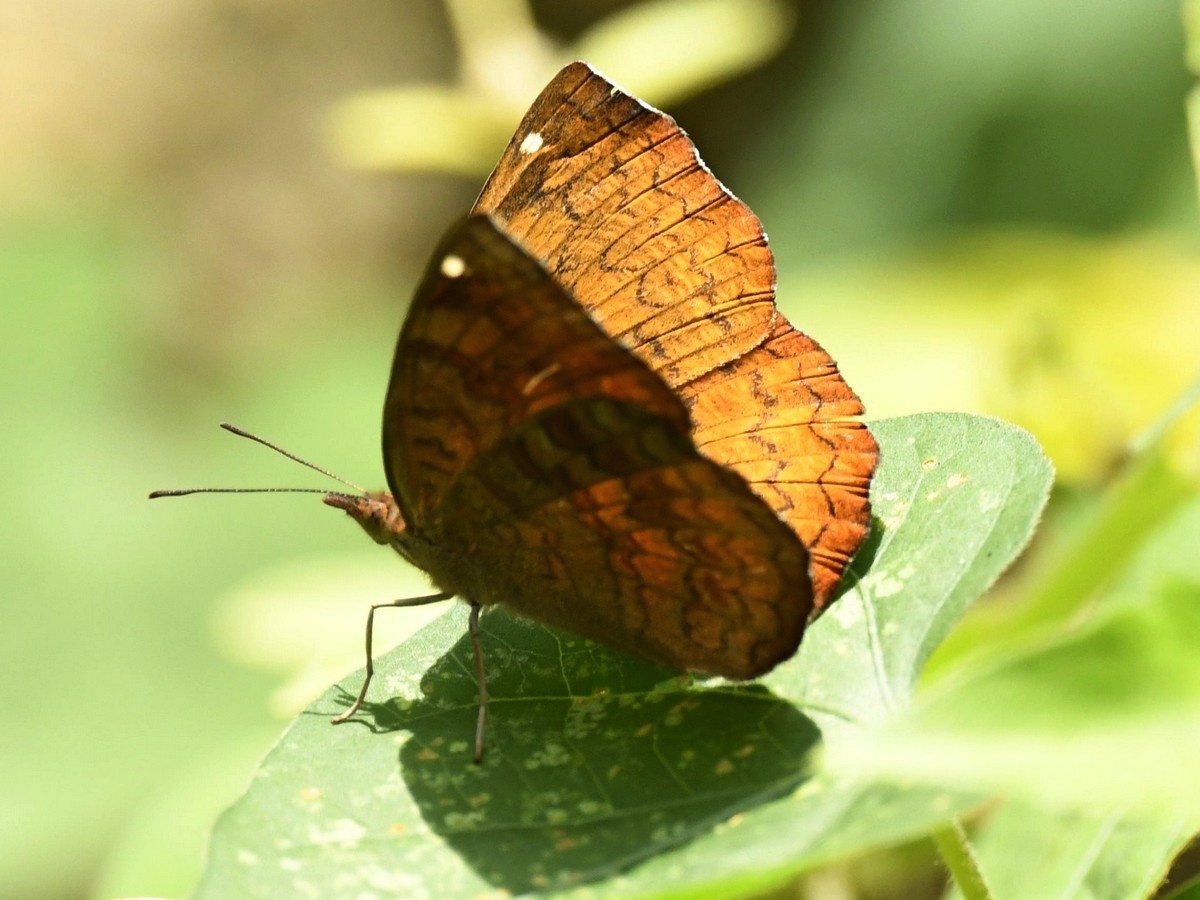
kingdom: Animalia
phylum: Arthropoda
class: Insecta
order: Lepidoptera
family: Nymphalidae
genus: Ariadne
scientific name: Ariadne merione
